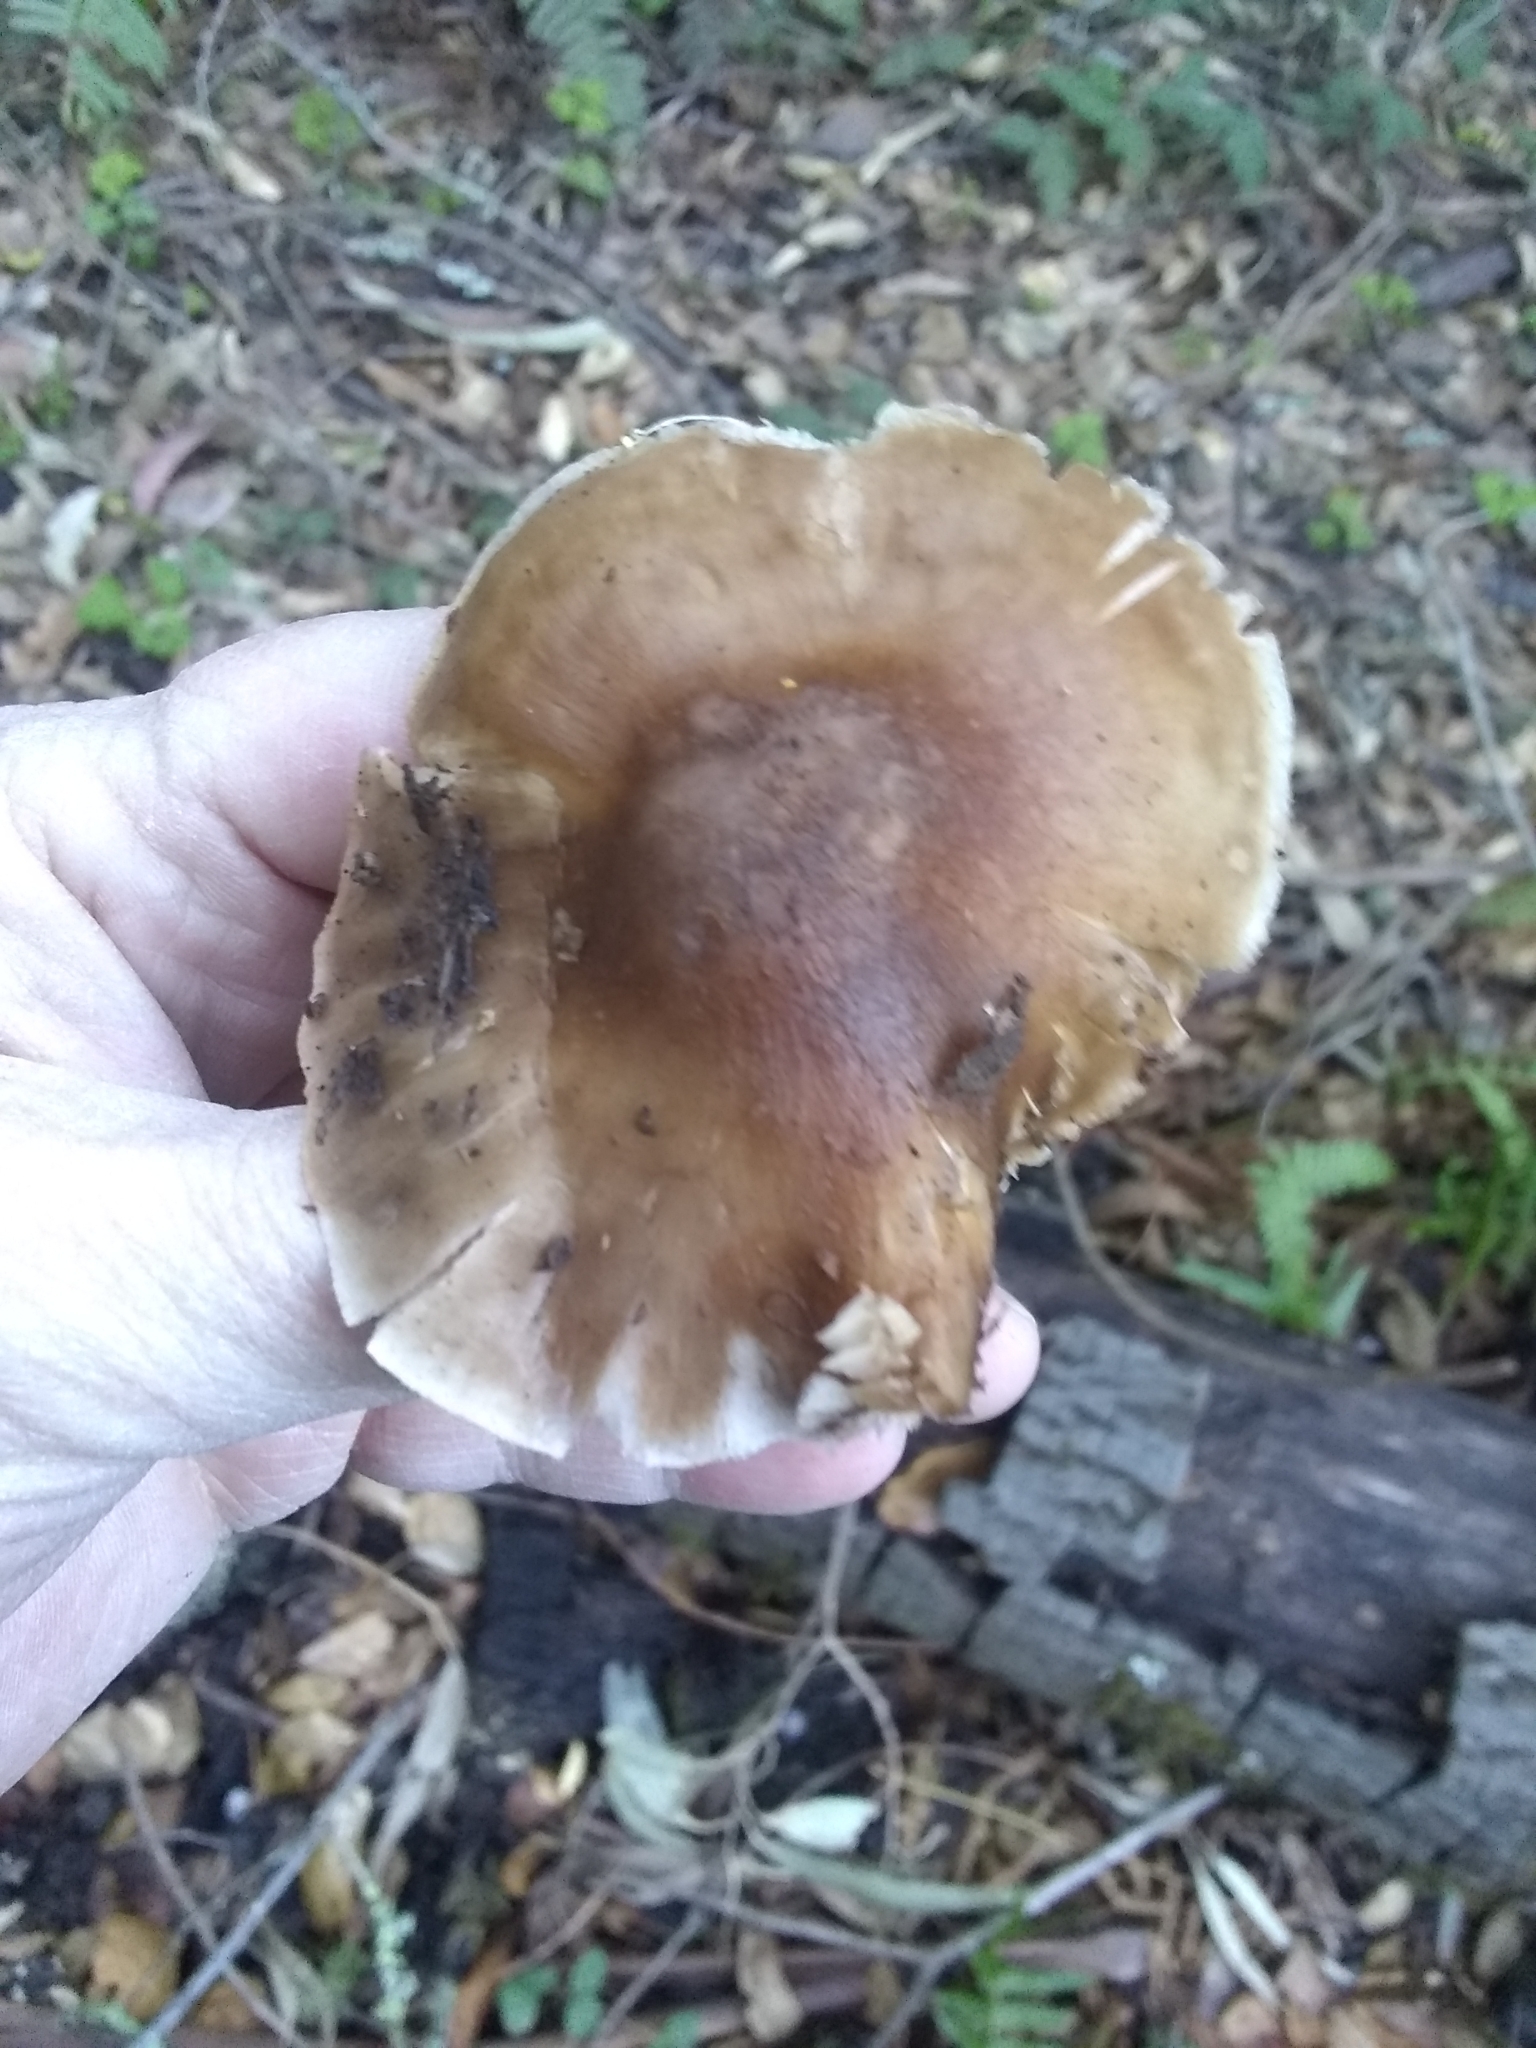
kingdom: Fungi
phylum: Basidiomycota
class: Agaricomycetes
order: Agaricales
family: Pluteaceae
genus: Pluteus
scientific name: Pluteus cervinus
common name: Deer shield
